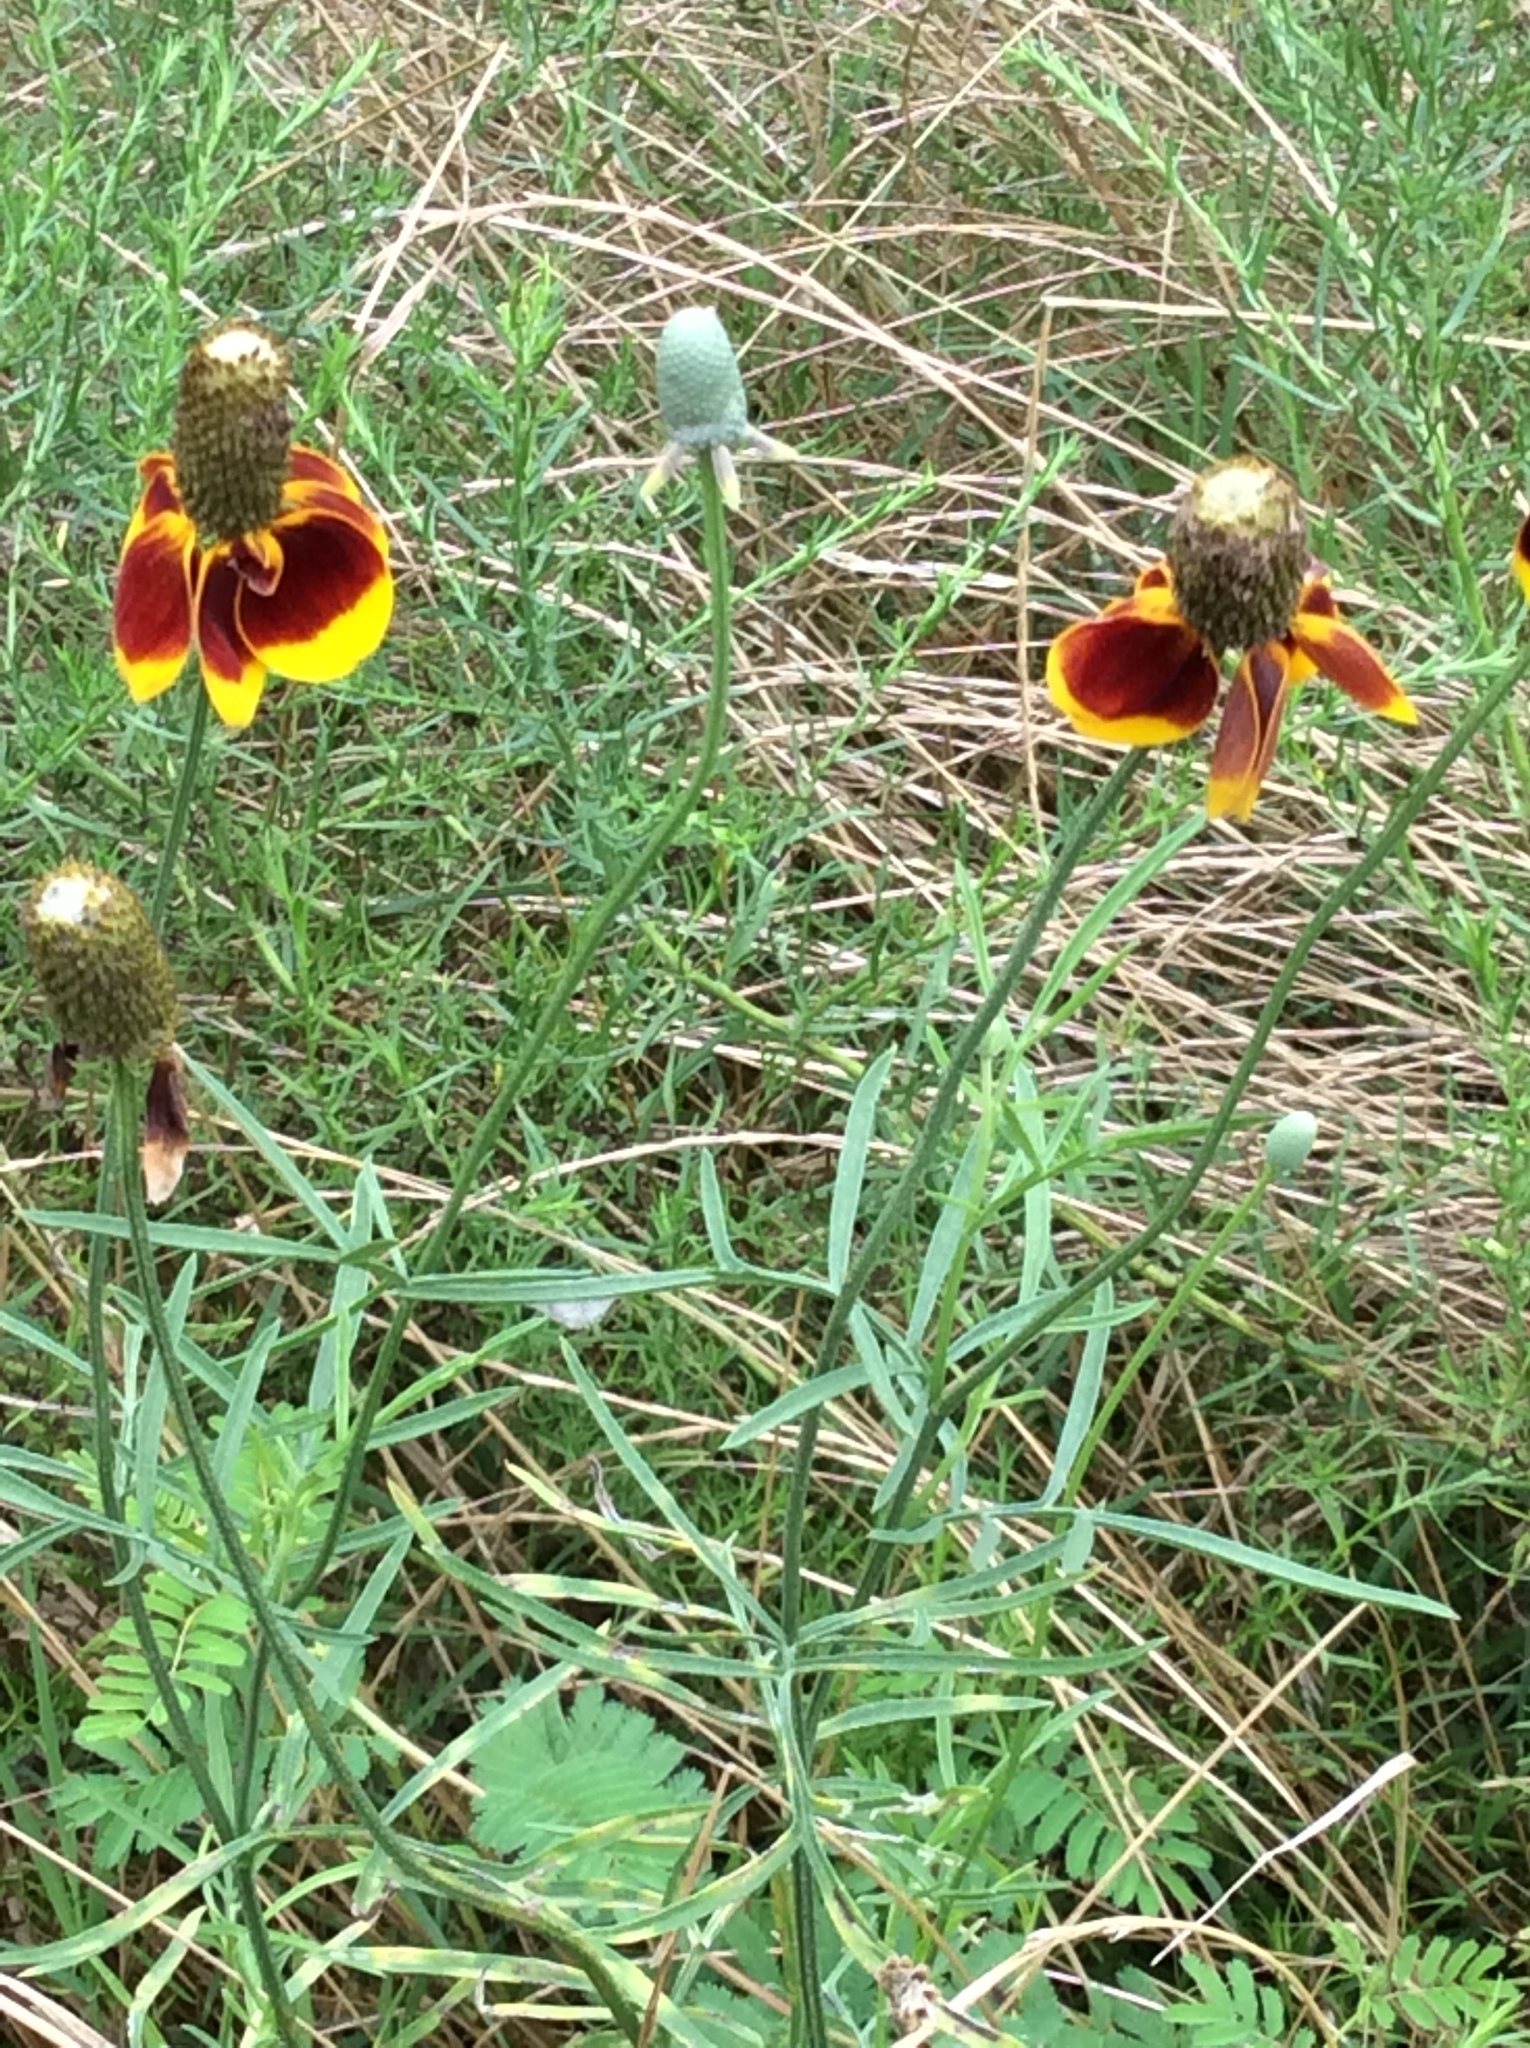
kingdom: Plantae
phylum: Tracheophyta
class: Magnoliopsida
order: Asterales
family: Asteraceae
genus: Ratibida
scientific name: Ratibida columnifera
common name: Prairie coneflower
